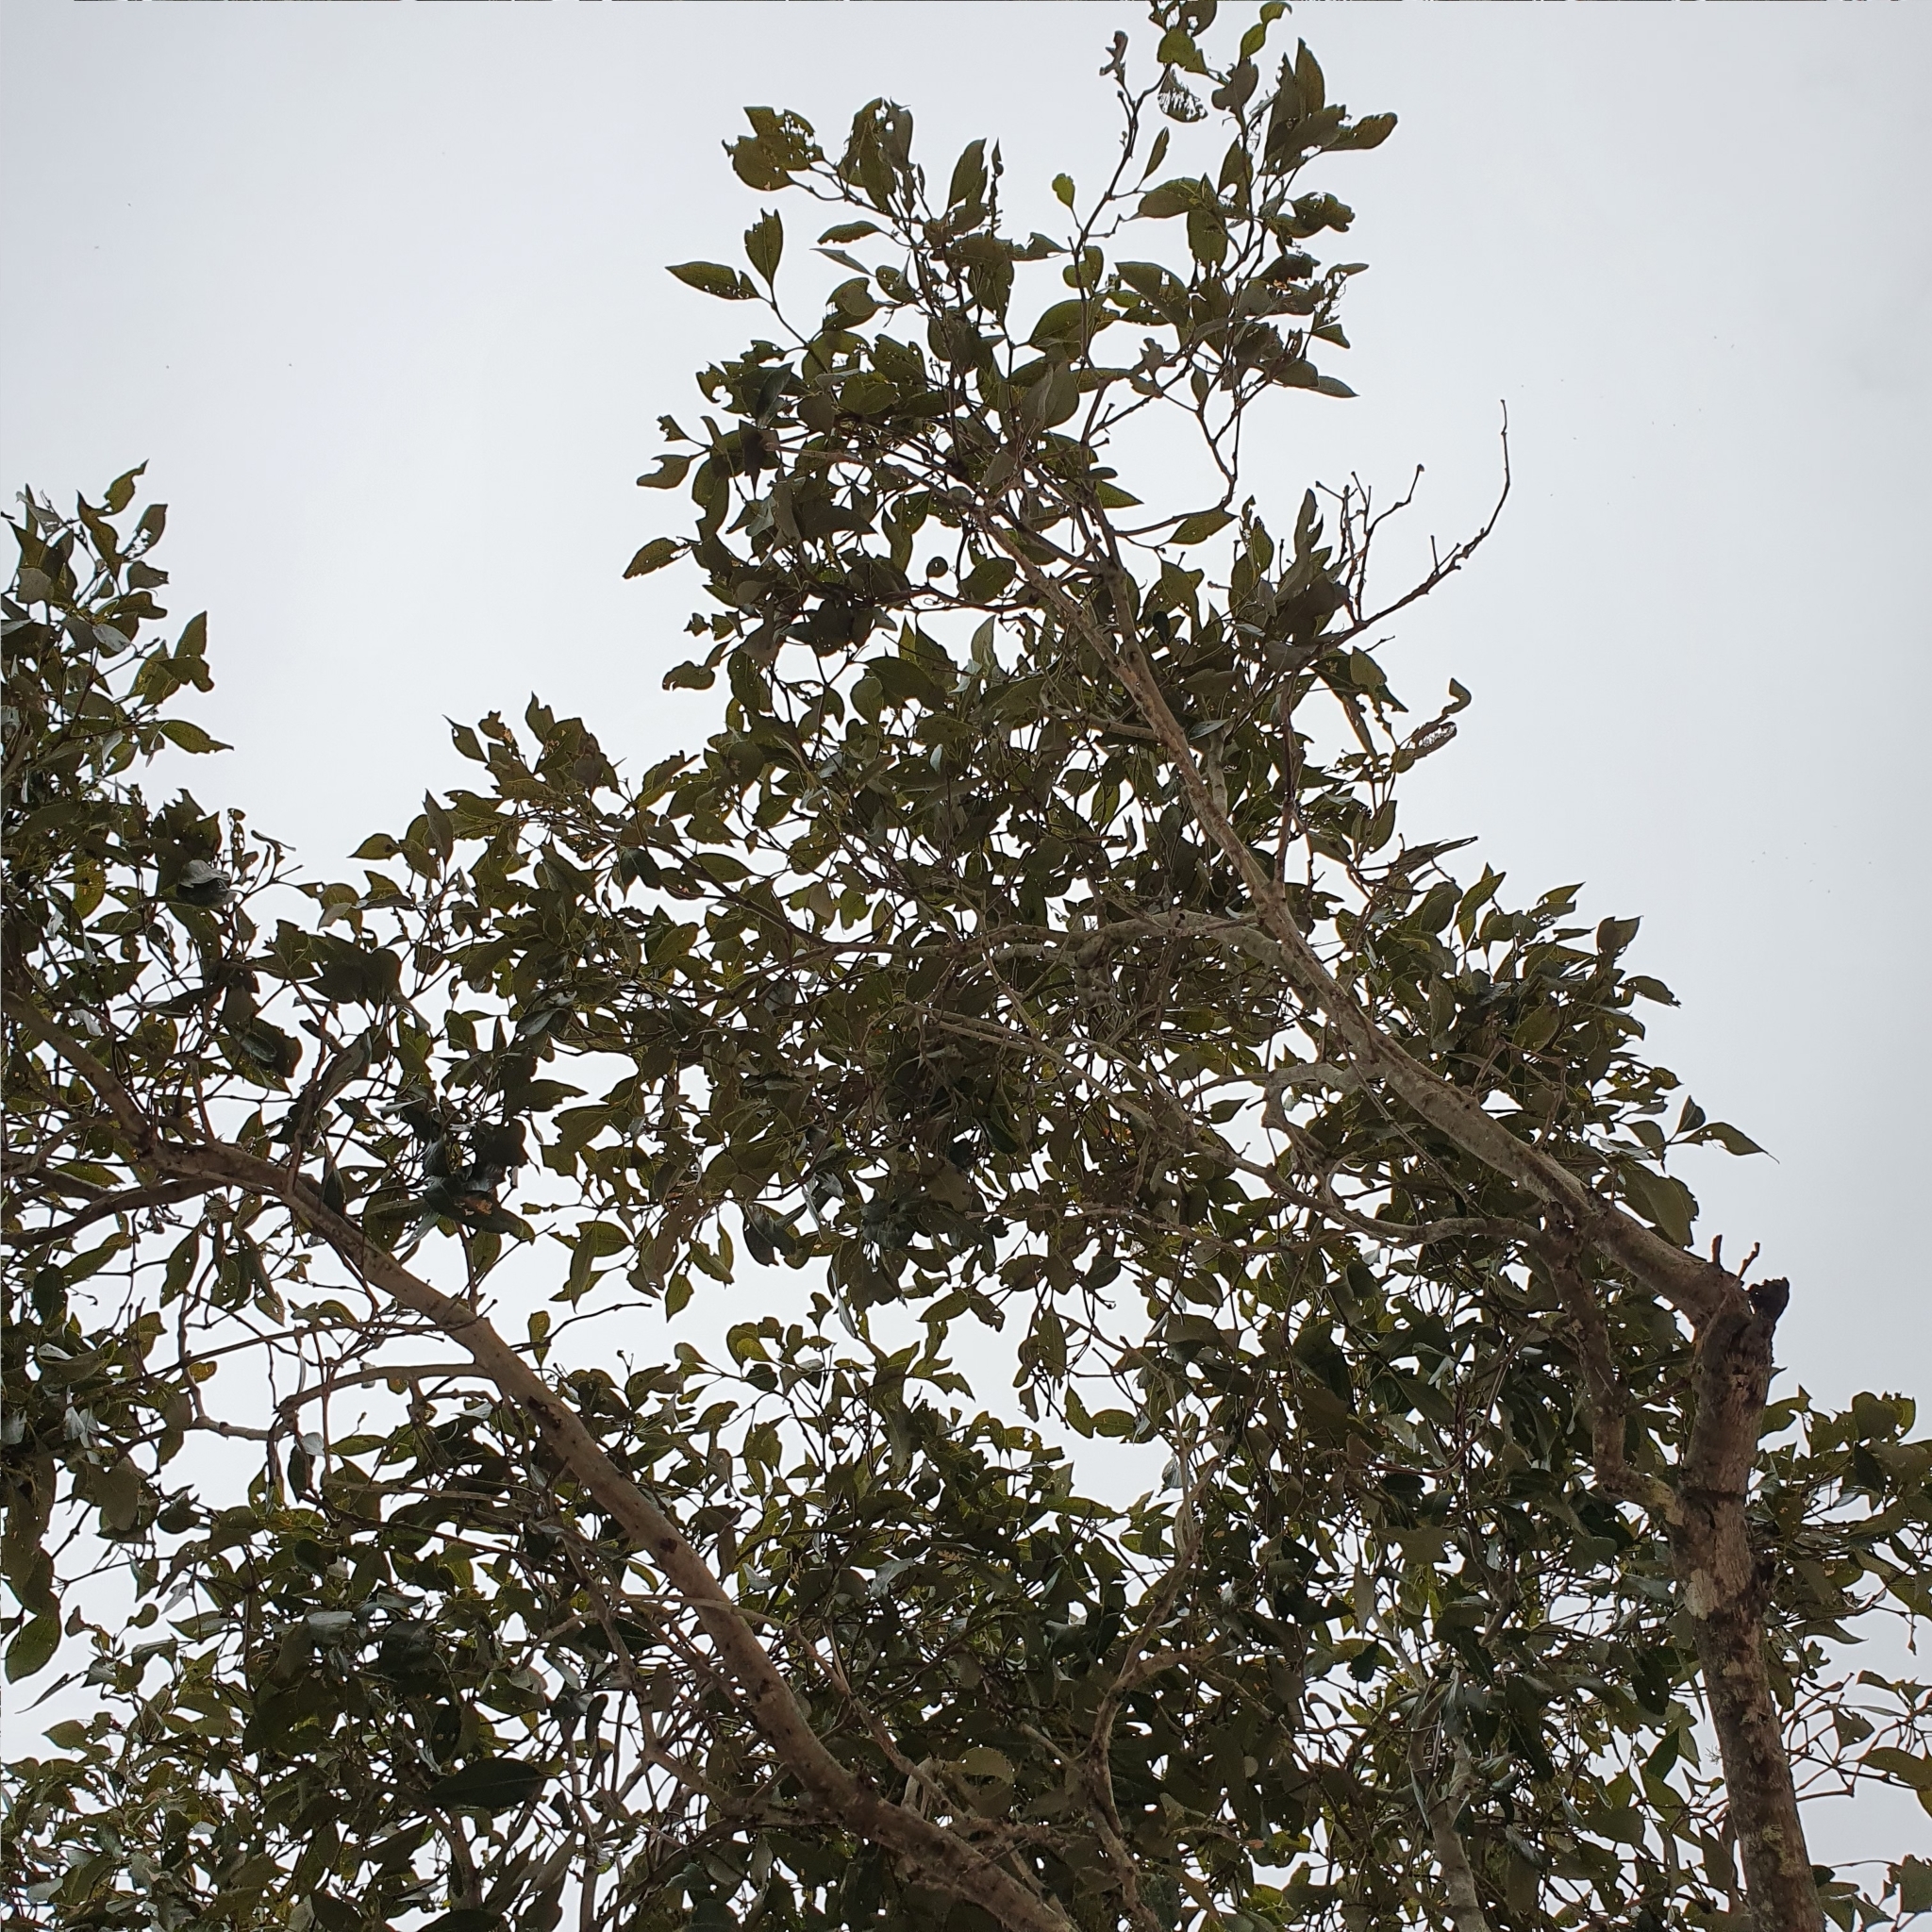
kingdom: Plantae
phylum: Tracheophyta
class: Magnoliopsida
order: Lamiales
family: Acanthaceae
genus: Avicennia
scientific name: Avicennia marina
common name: Gray mangrove
